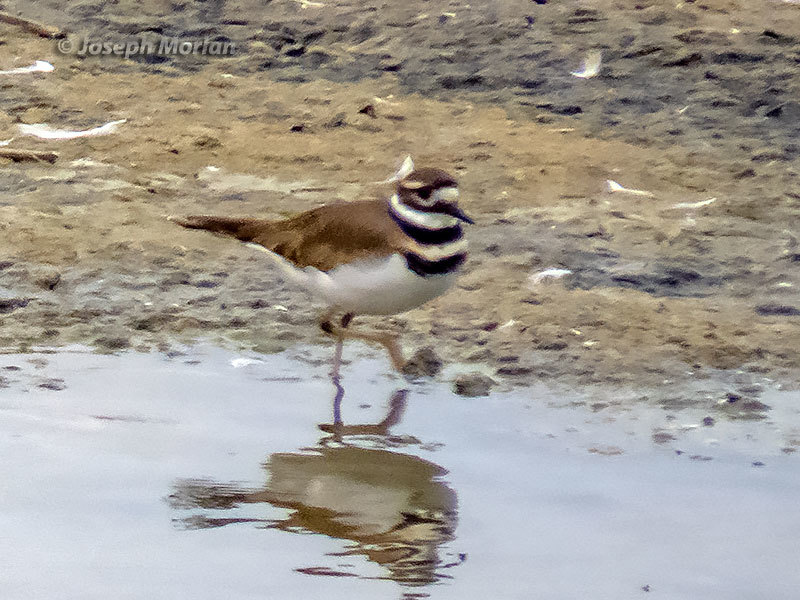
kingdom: Animalia
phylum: Chordata
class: Aves
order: Charadriiformes
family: Charadriidae
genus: Charadrius
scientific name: Charadrius vociferus
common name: Killdeer
